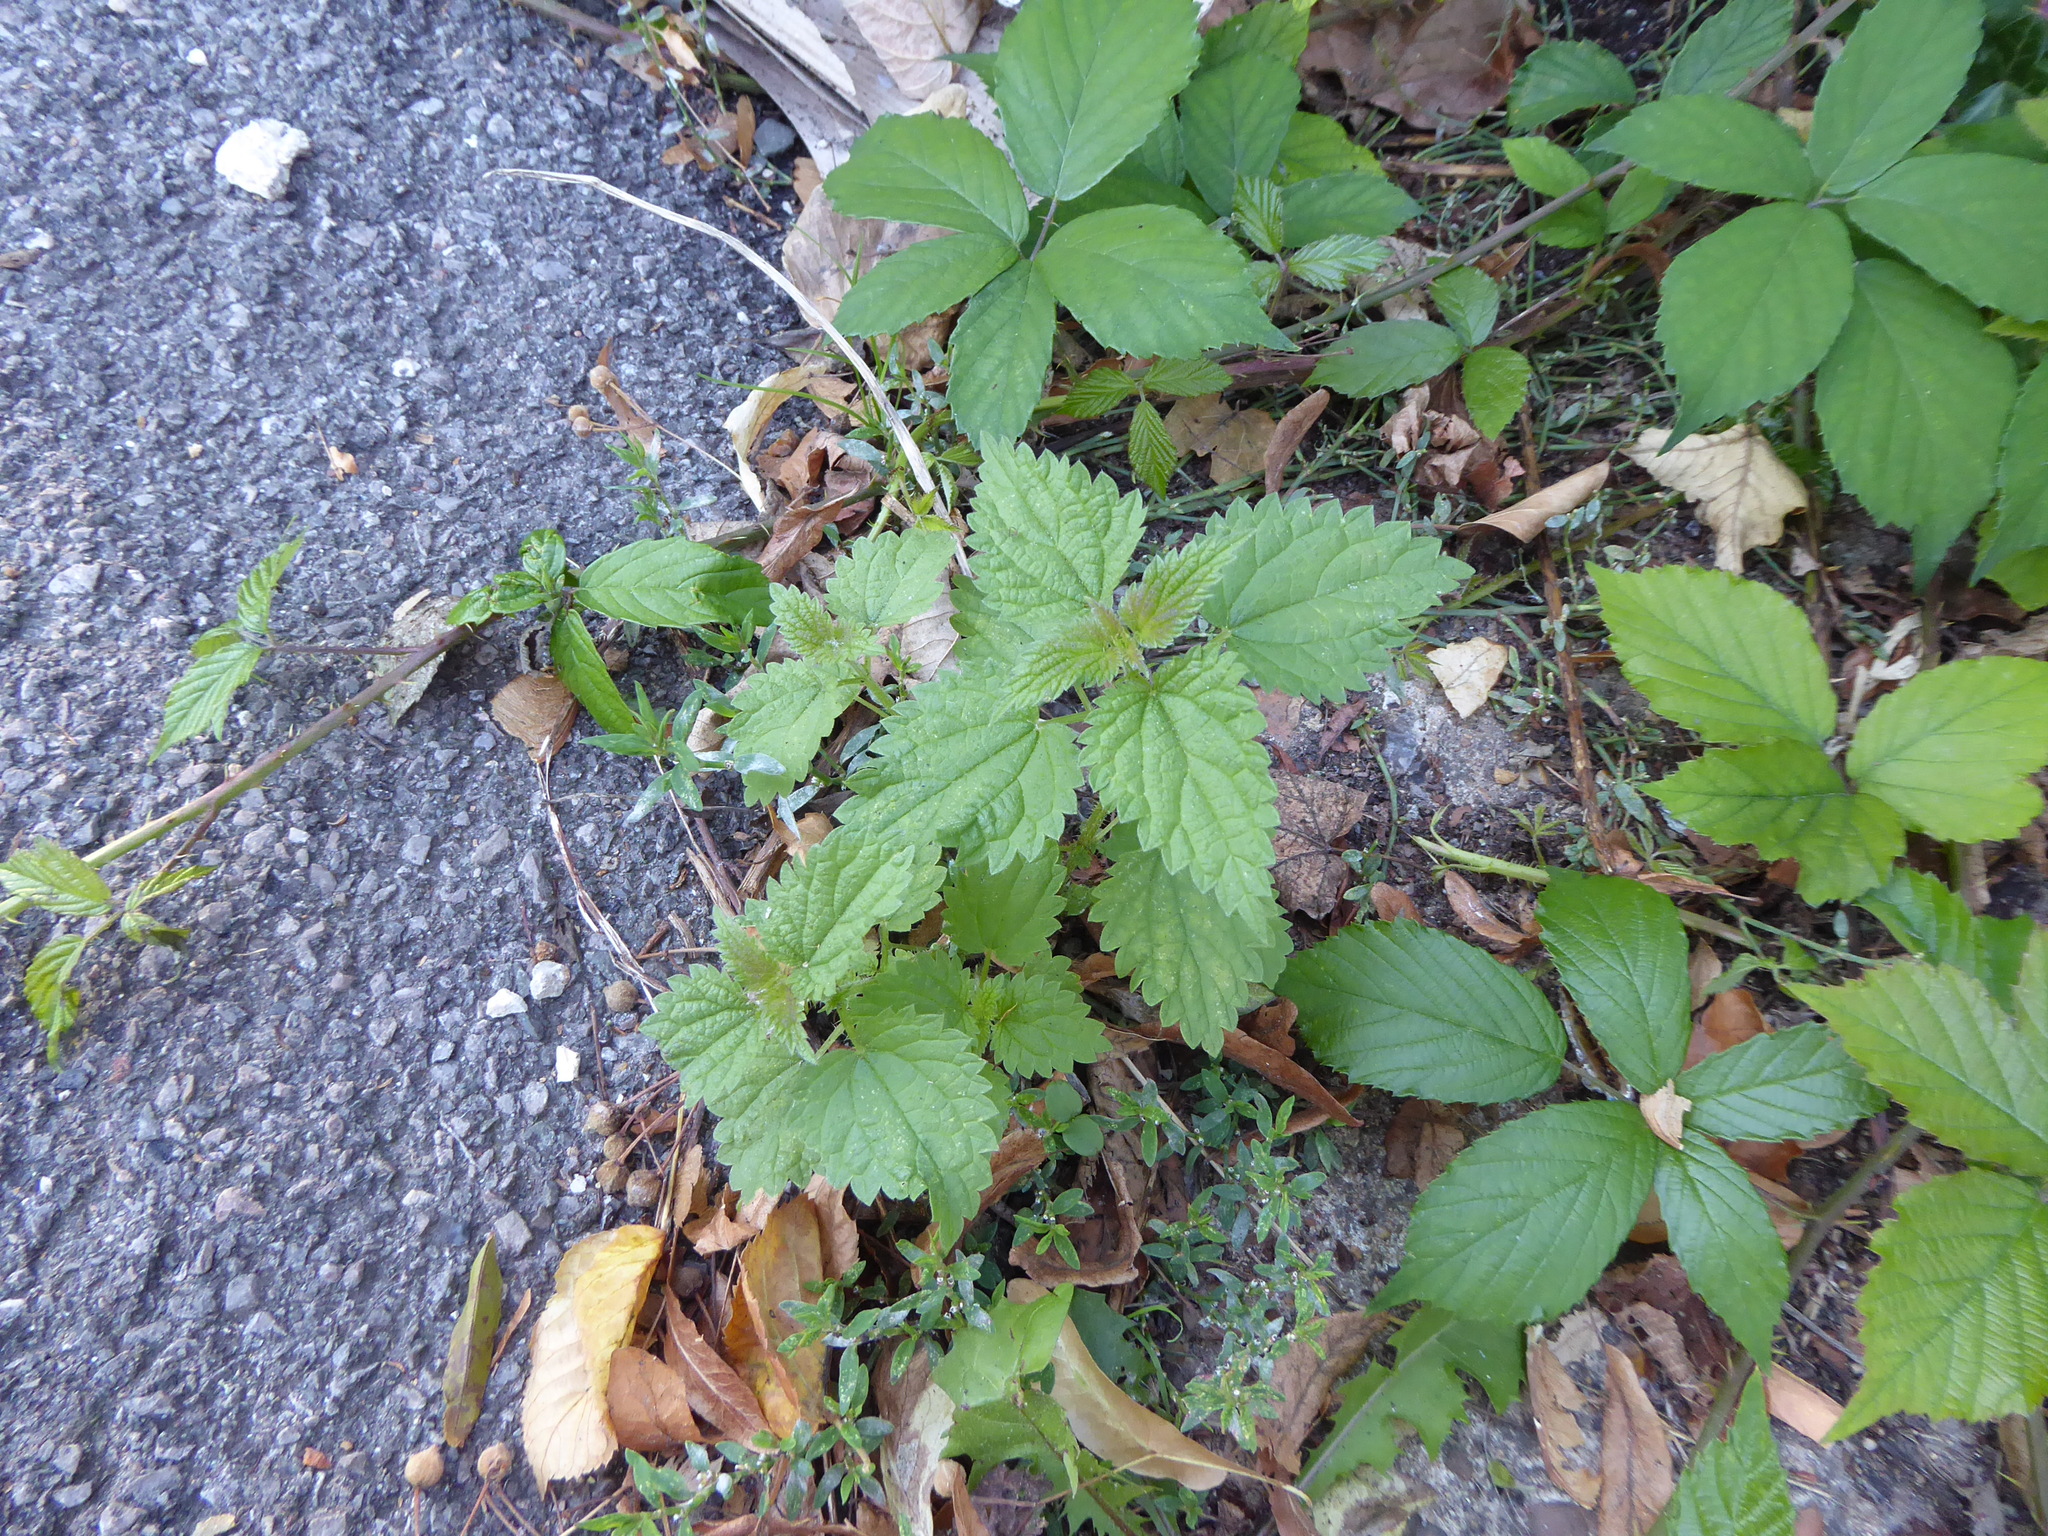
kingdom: Plantae
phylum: Tracheophyta
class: Magnoliopsida
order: Rosales
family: Urticaceae
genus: Urtica
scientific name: Urtica dioica
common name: Common nettle
